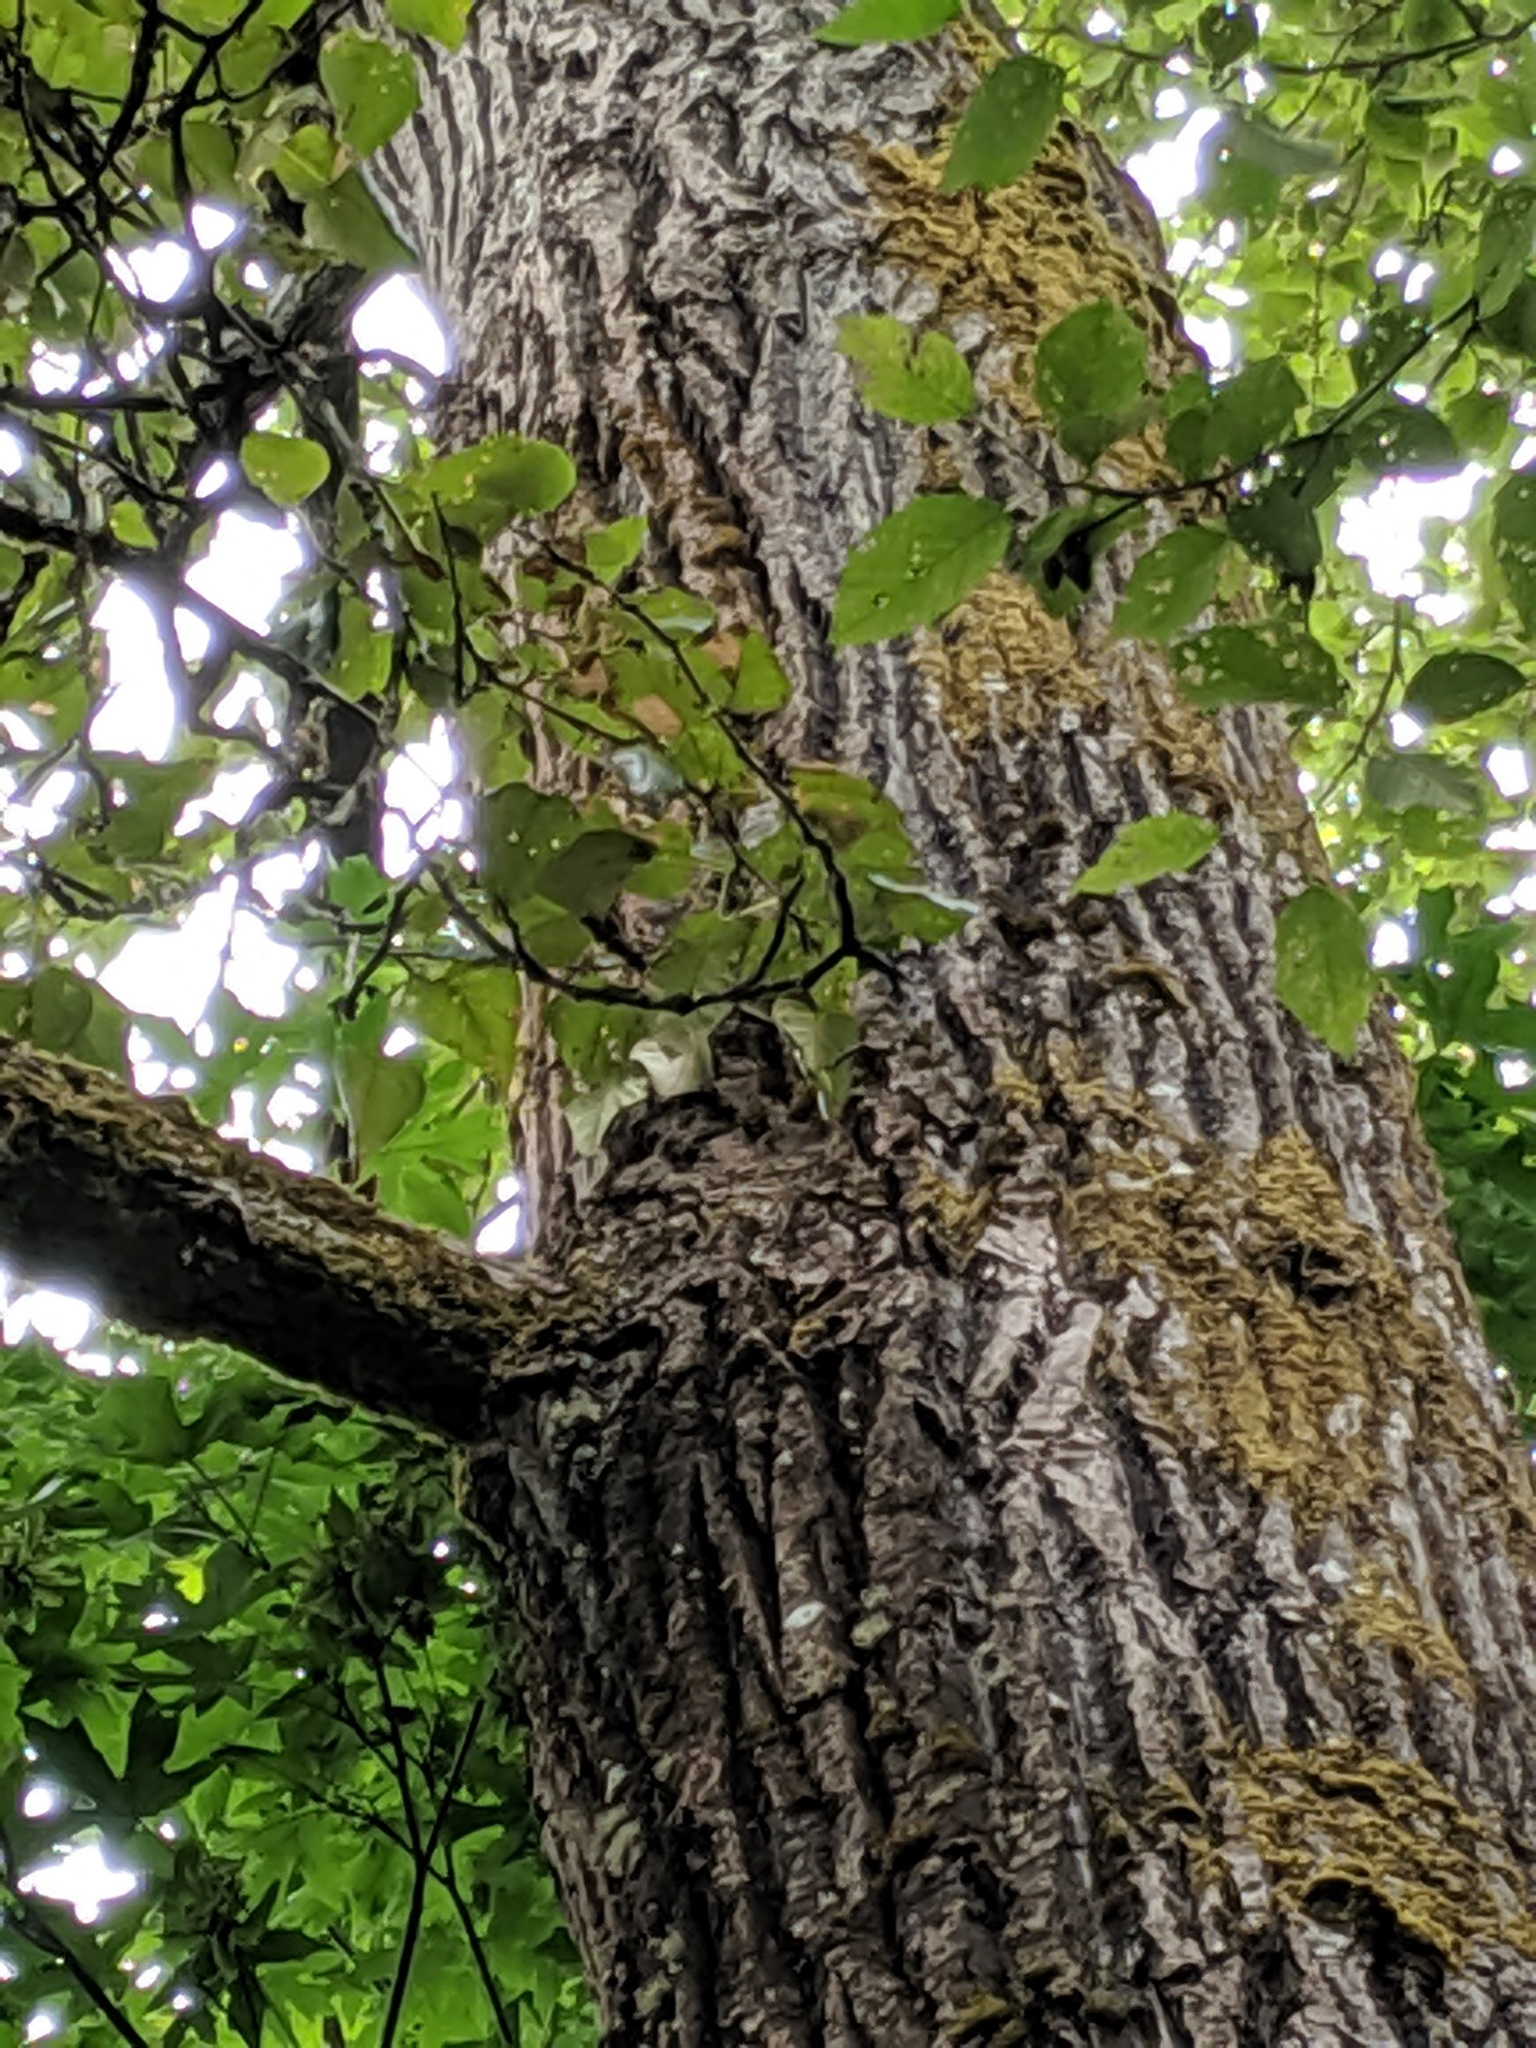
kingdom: Plantae
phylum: Tracheophyta
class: Magnoliopsida
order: Malpighiales
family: Salicaceae
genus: Populus
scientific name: Populus trichocarpa
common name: Black cottonwood
